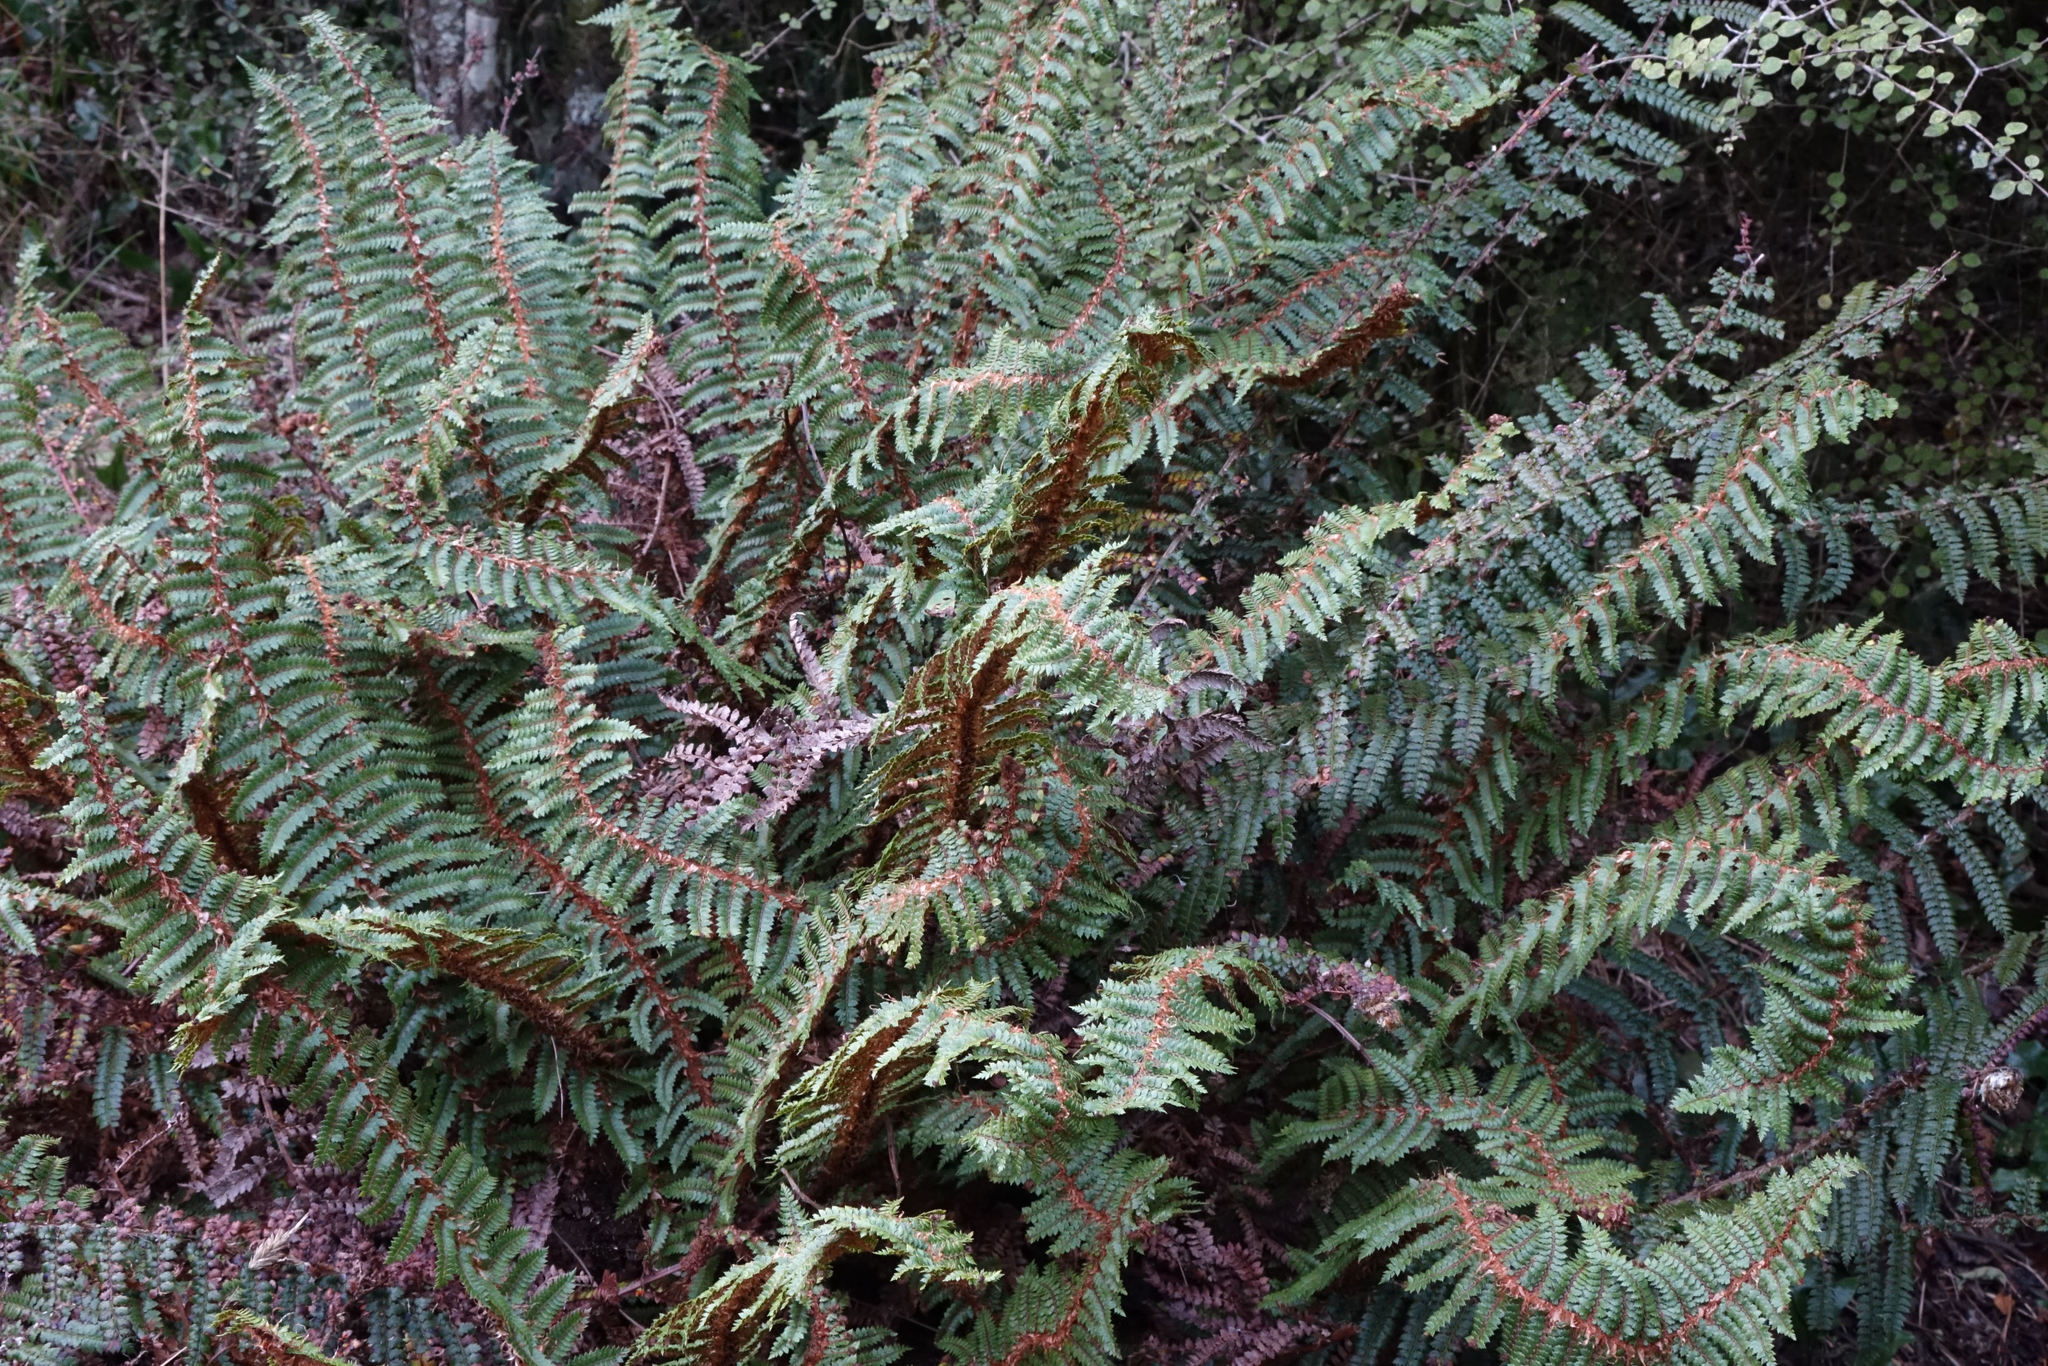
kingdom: Plantae
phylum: Tracheophyta
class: Polypodiopsida
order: Polypodiales
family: Dryopteridaceae
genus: Polystichum
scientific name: Polystichum vestitum
